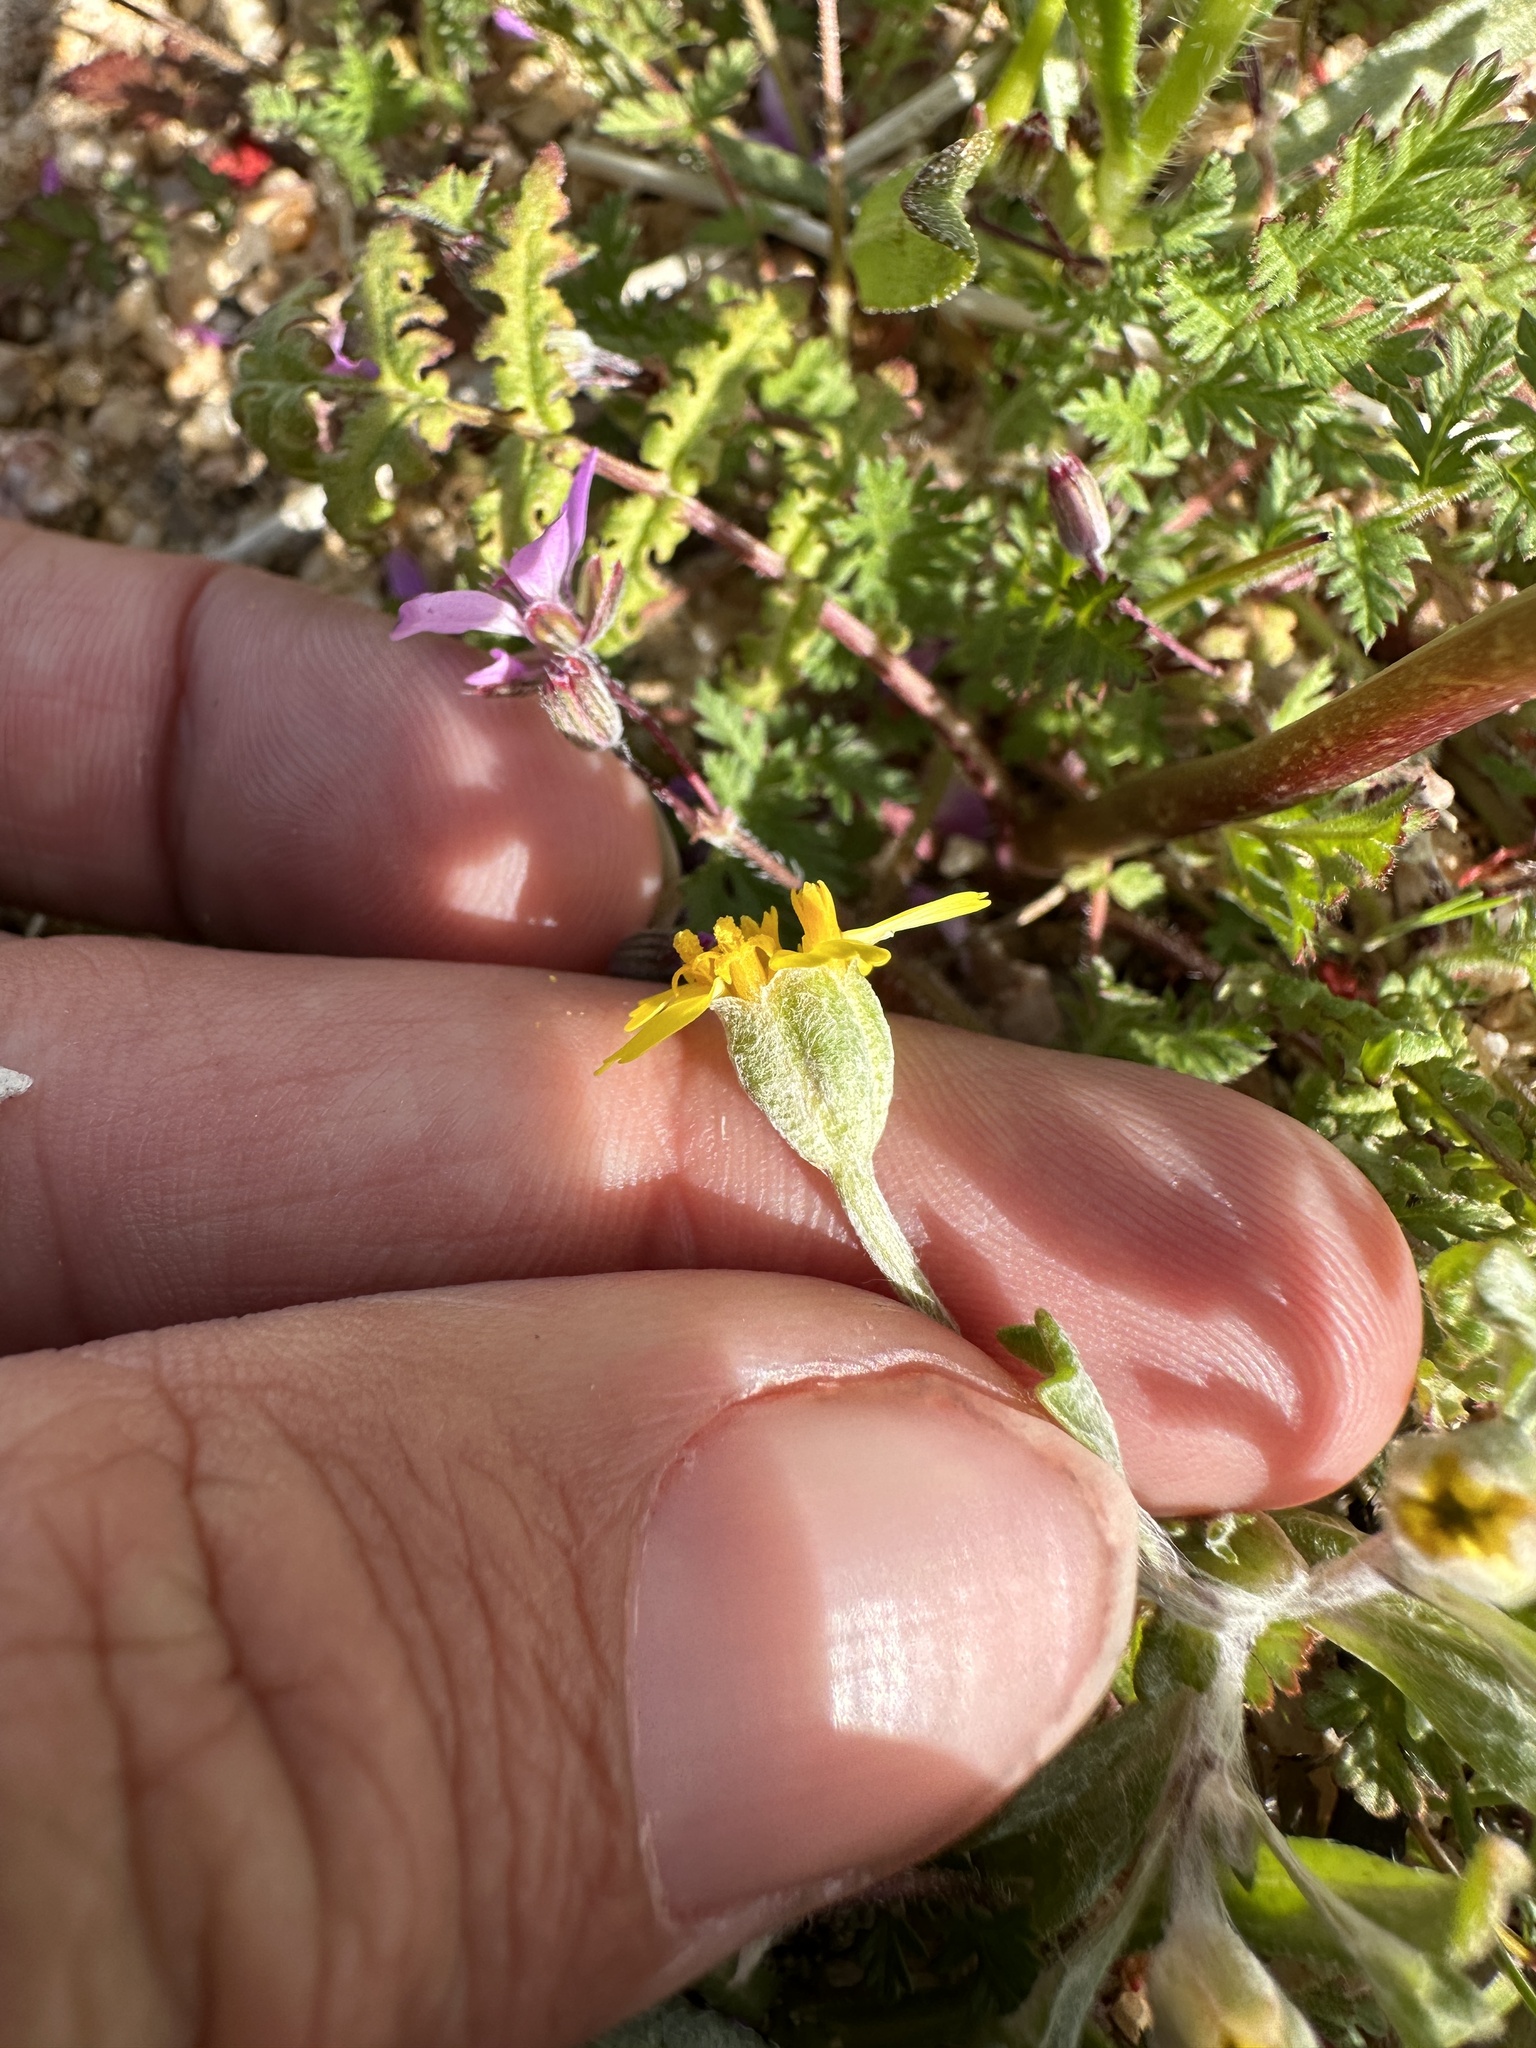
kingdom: Plantae
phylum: Tracheophyta
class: Magnoliopsida
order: Asterales
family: Asteraceae
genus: Syntrichopappus
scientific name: Syntrichopappus fremontii
